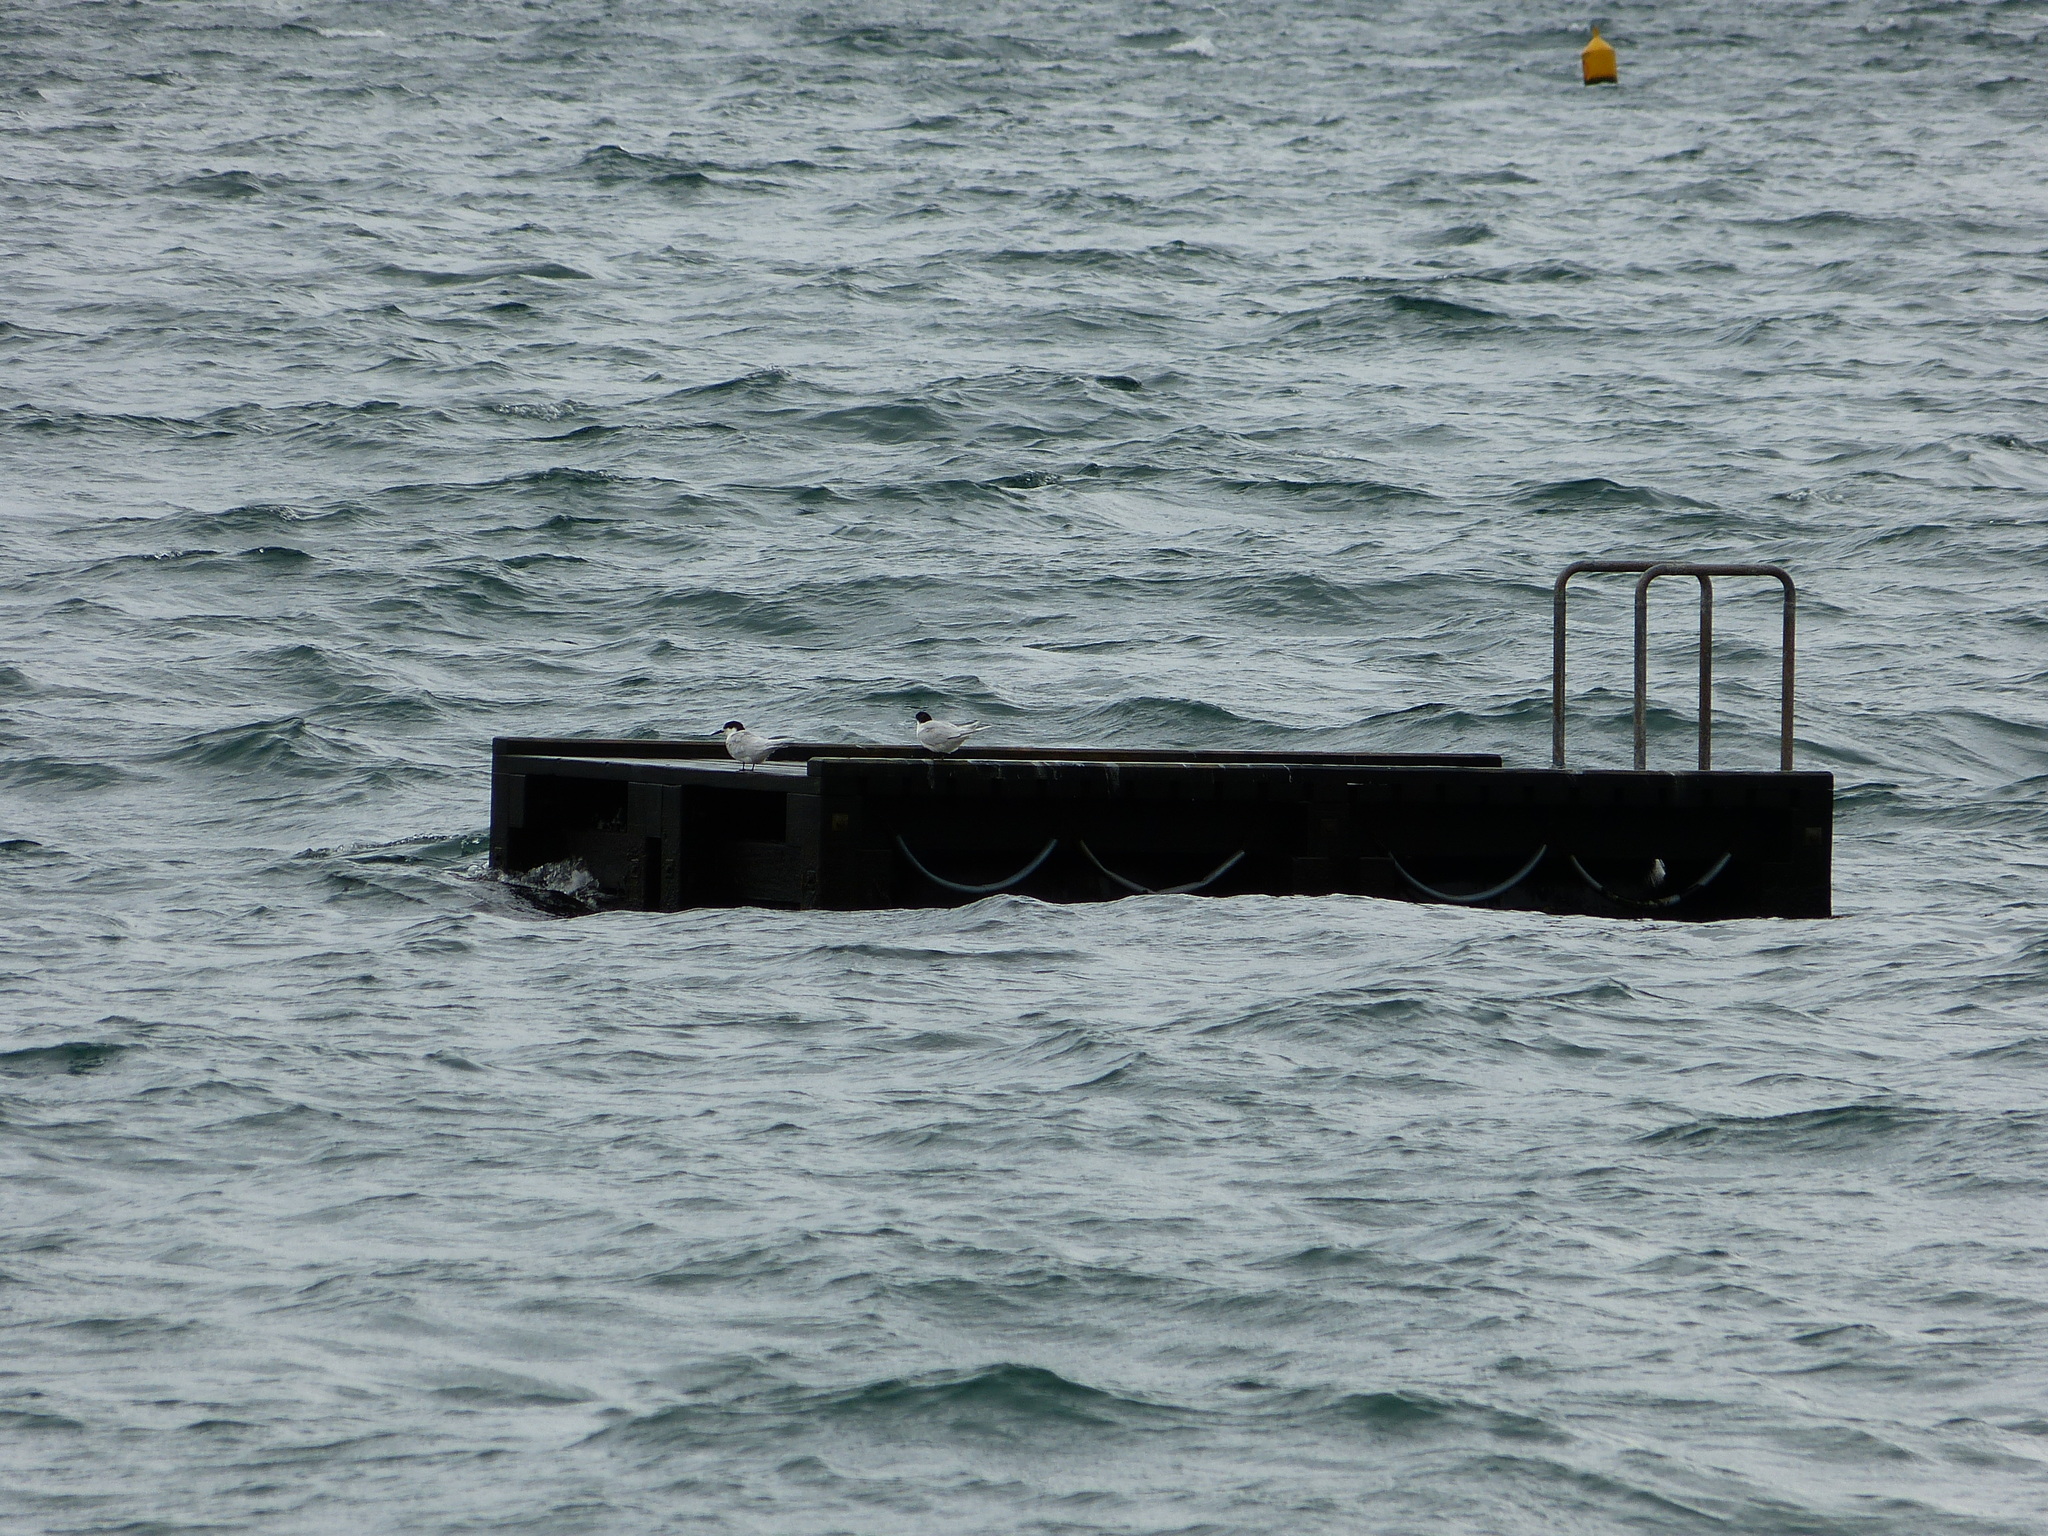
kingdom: Animalia
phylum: Chordata
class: Aves
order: Charadriiformes
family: Laridae
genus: Sterna
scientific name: Sterna striata
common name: White-fronted tern
